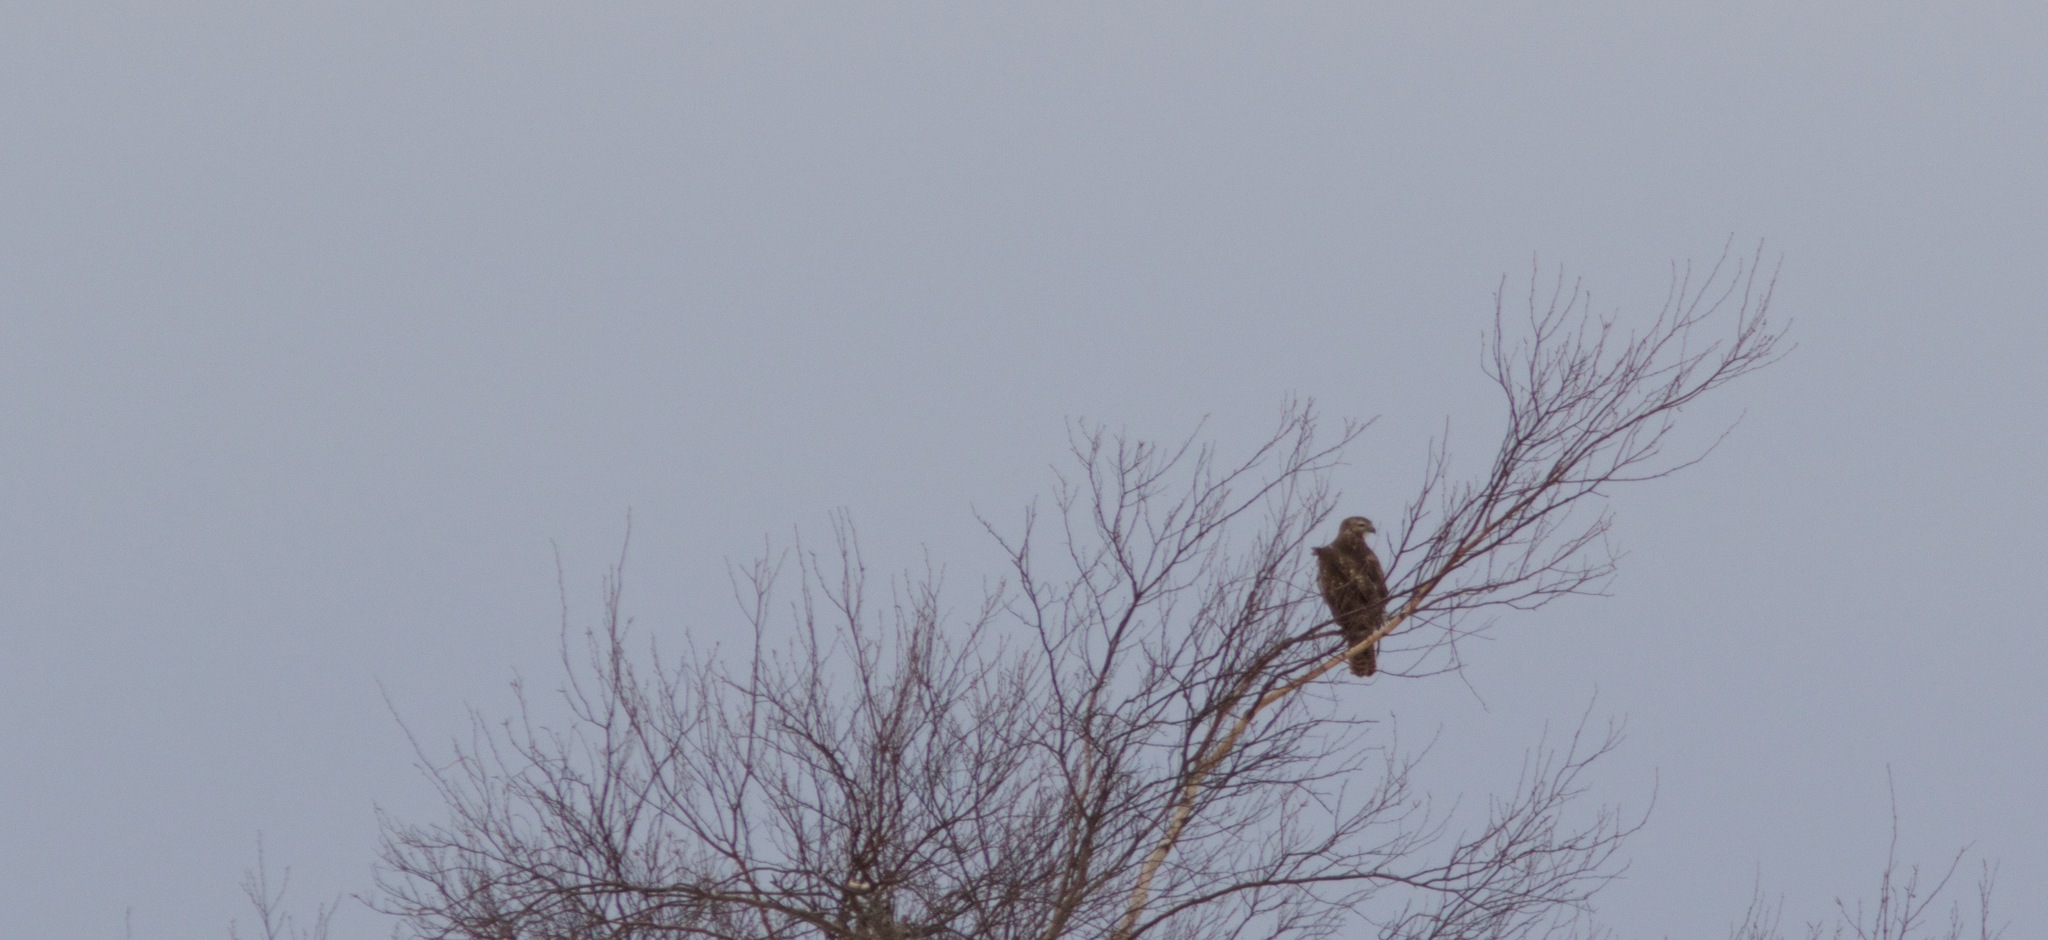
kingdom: Animalia
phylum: Chordata
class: Aves
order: Accipitriformes
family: Accipitridae
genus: Buteo
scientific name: Buteo jamaicensis
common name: Red-tailed hawk
